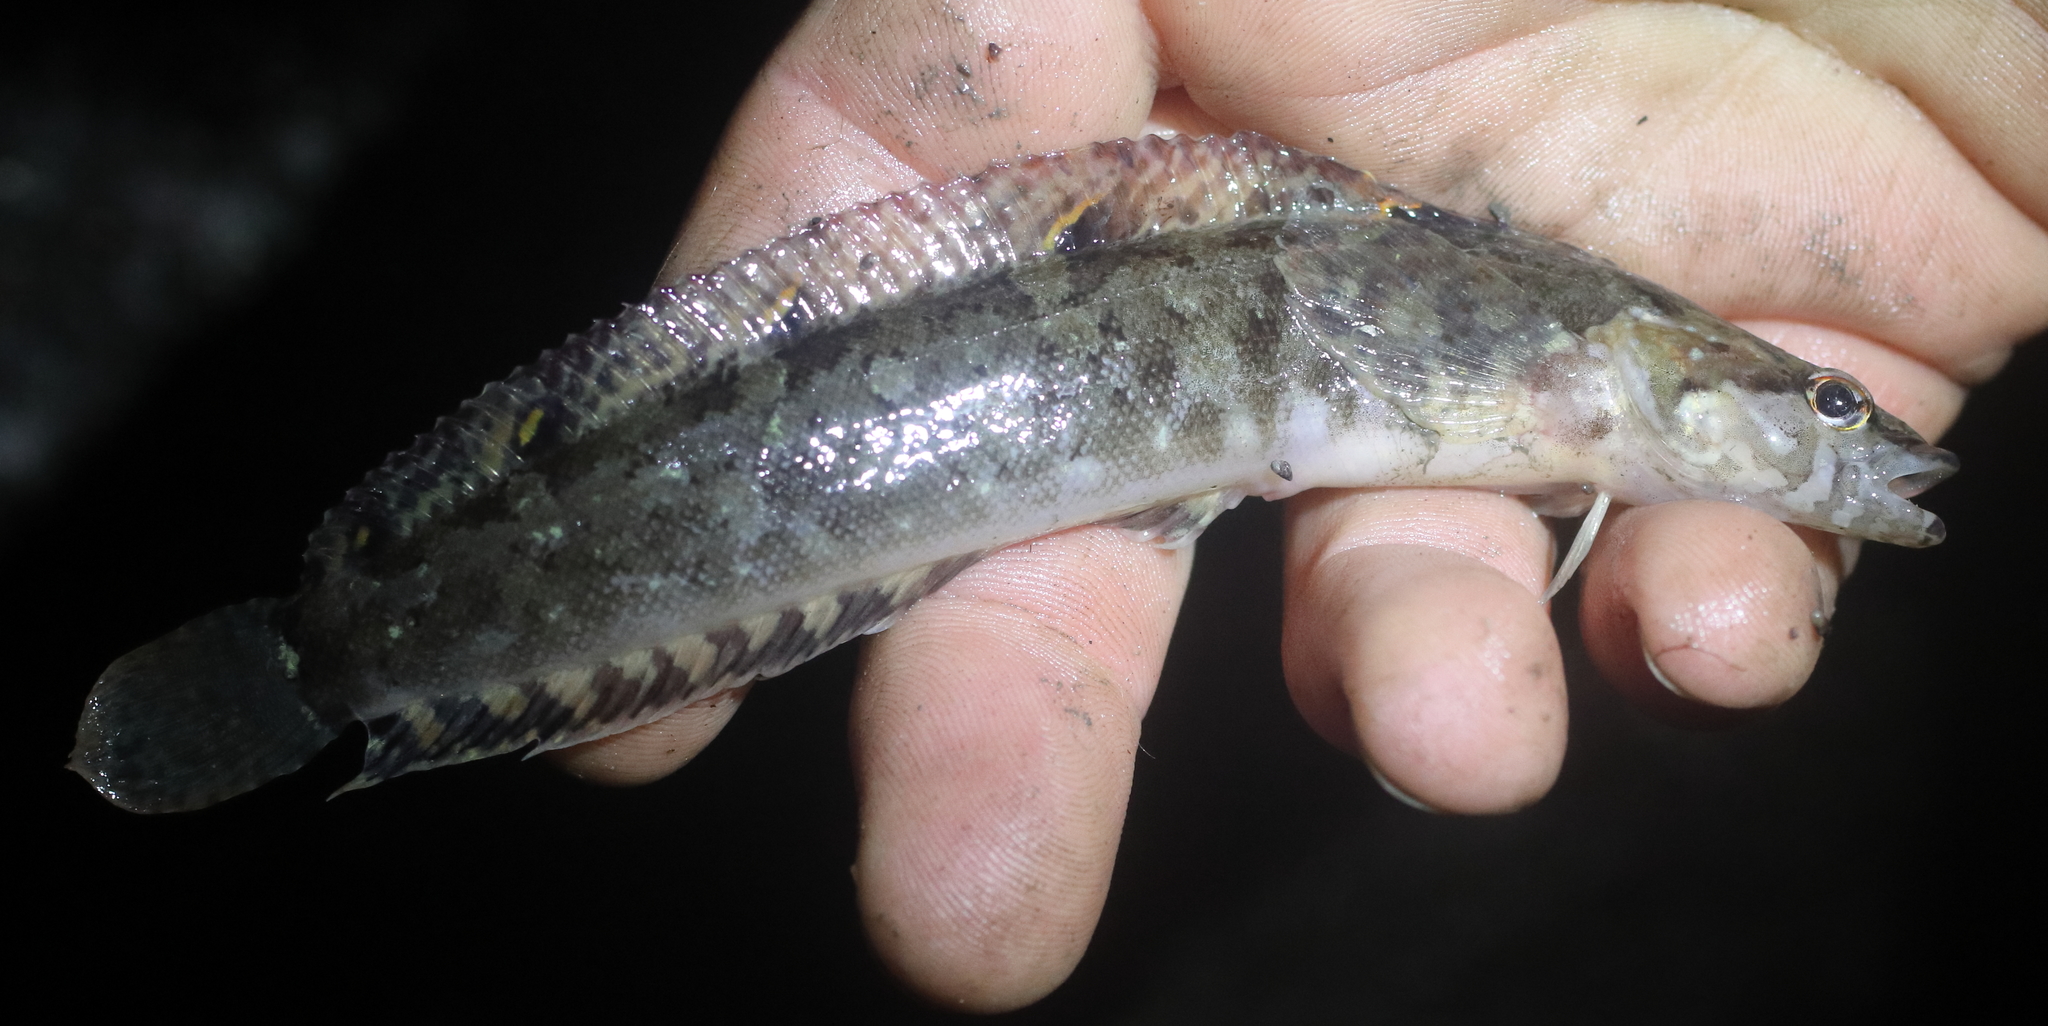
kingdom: Animalia
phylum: Chordata
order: Perciformes
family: Stichaeidae
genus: Stichaeus
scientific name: Stichaeus punctatus
